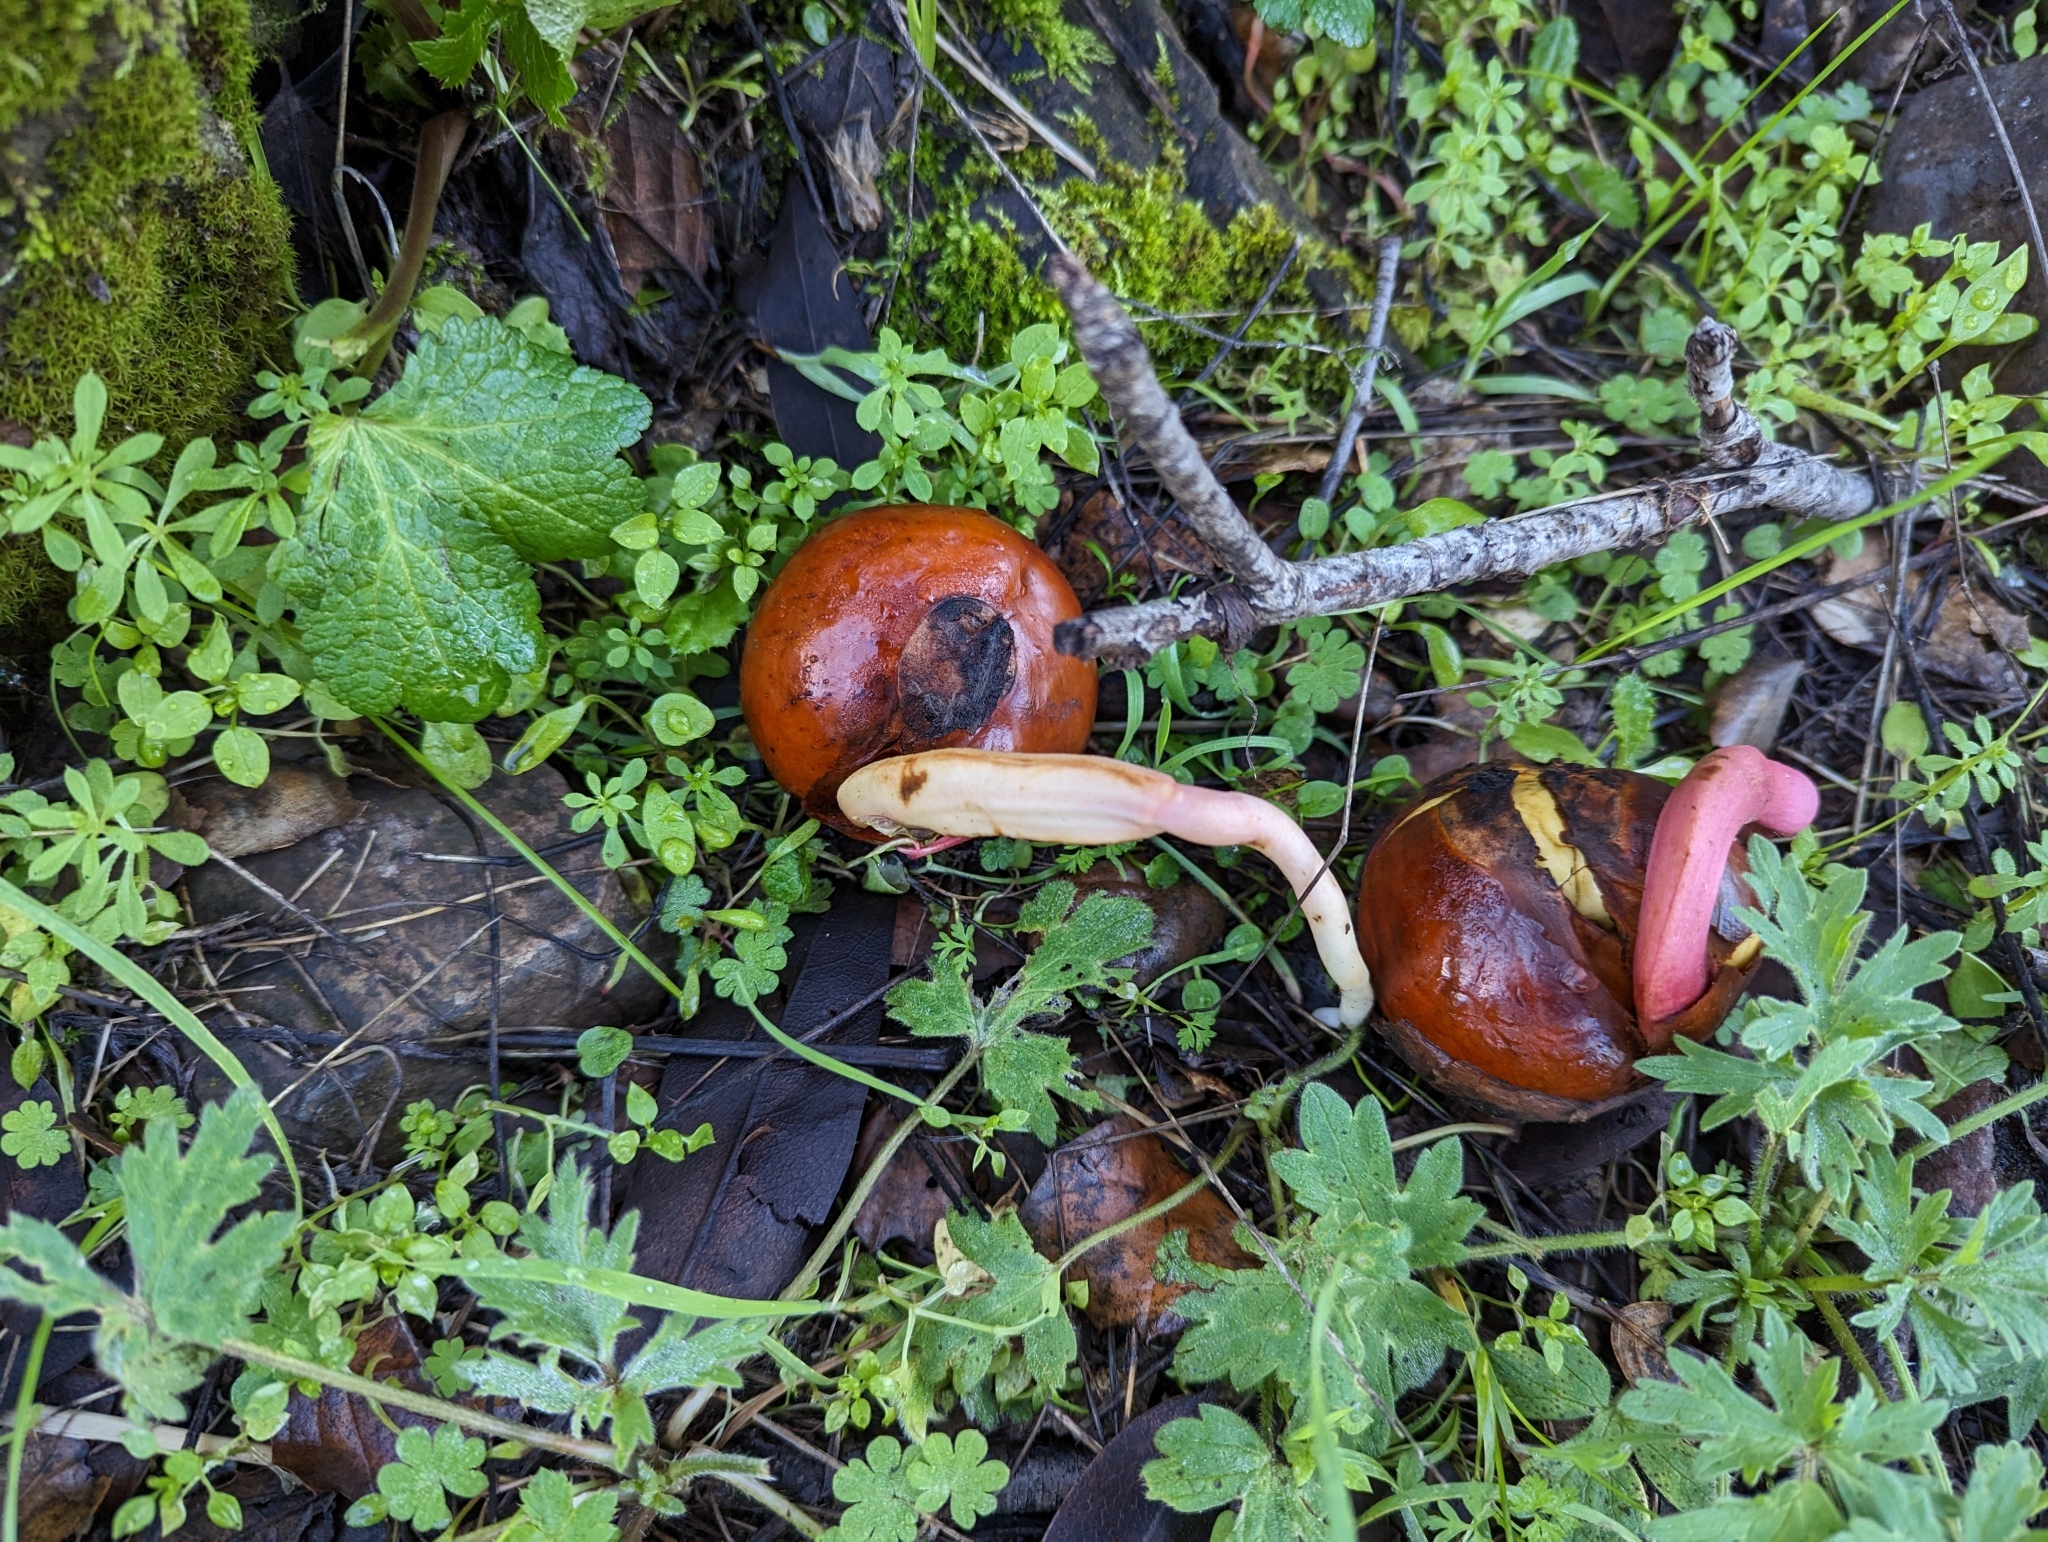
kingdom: Plantae
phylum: Tracheophyta
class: Magnoliopsida
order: Sapindales
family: Sapindaceae
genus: Aesculus
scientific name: Aesculus californica
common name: California buckeye
